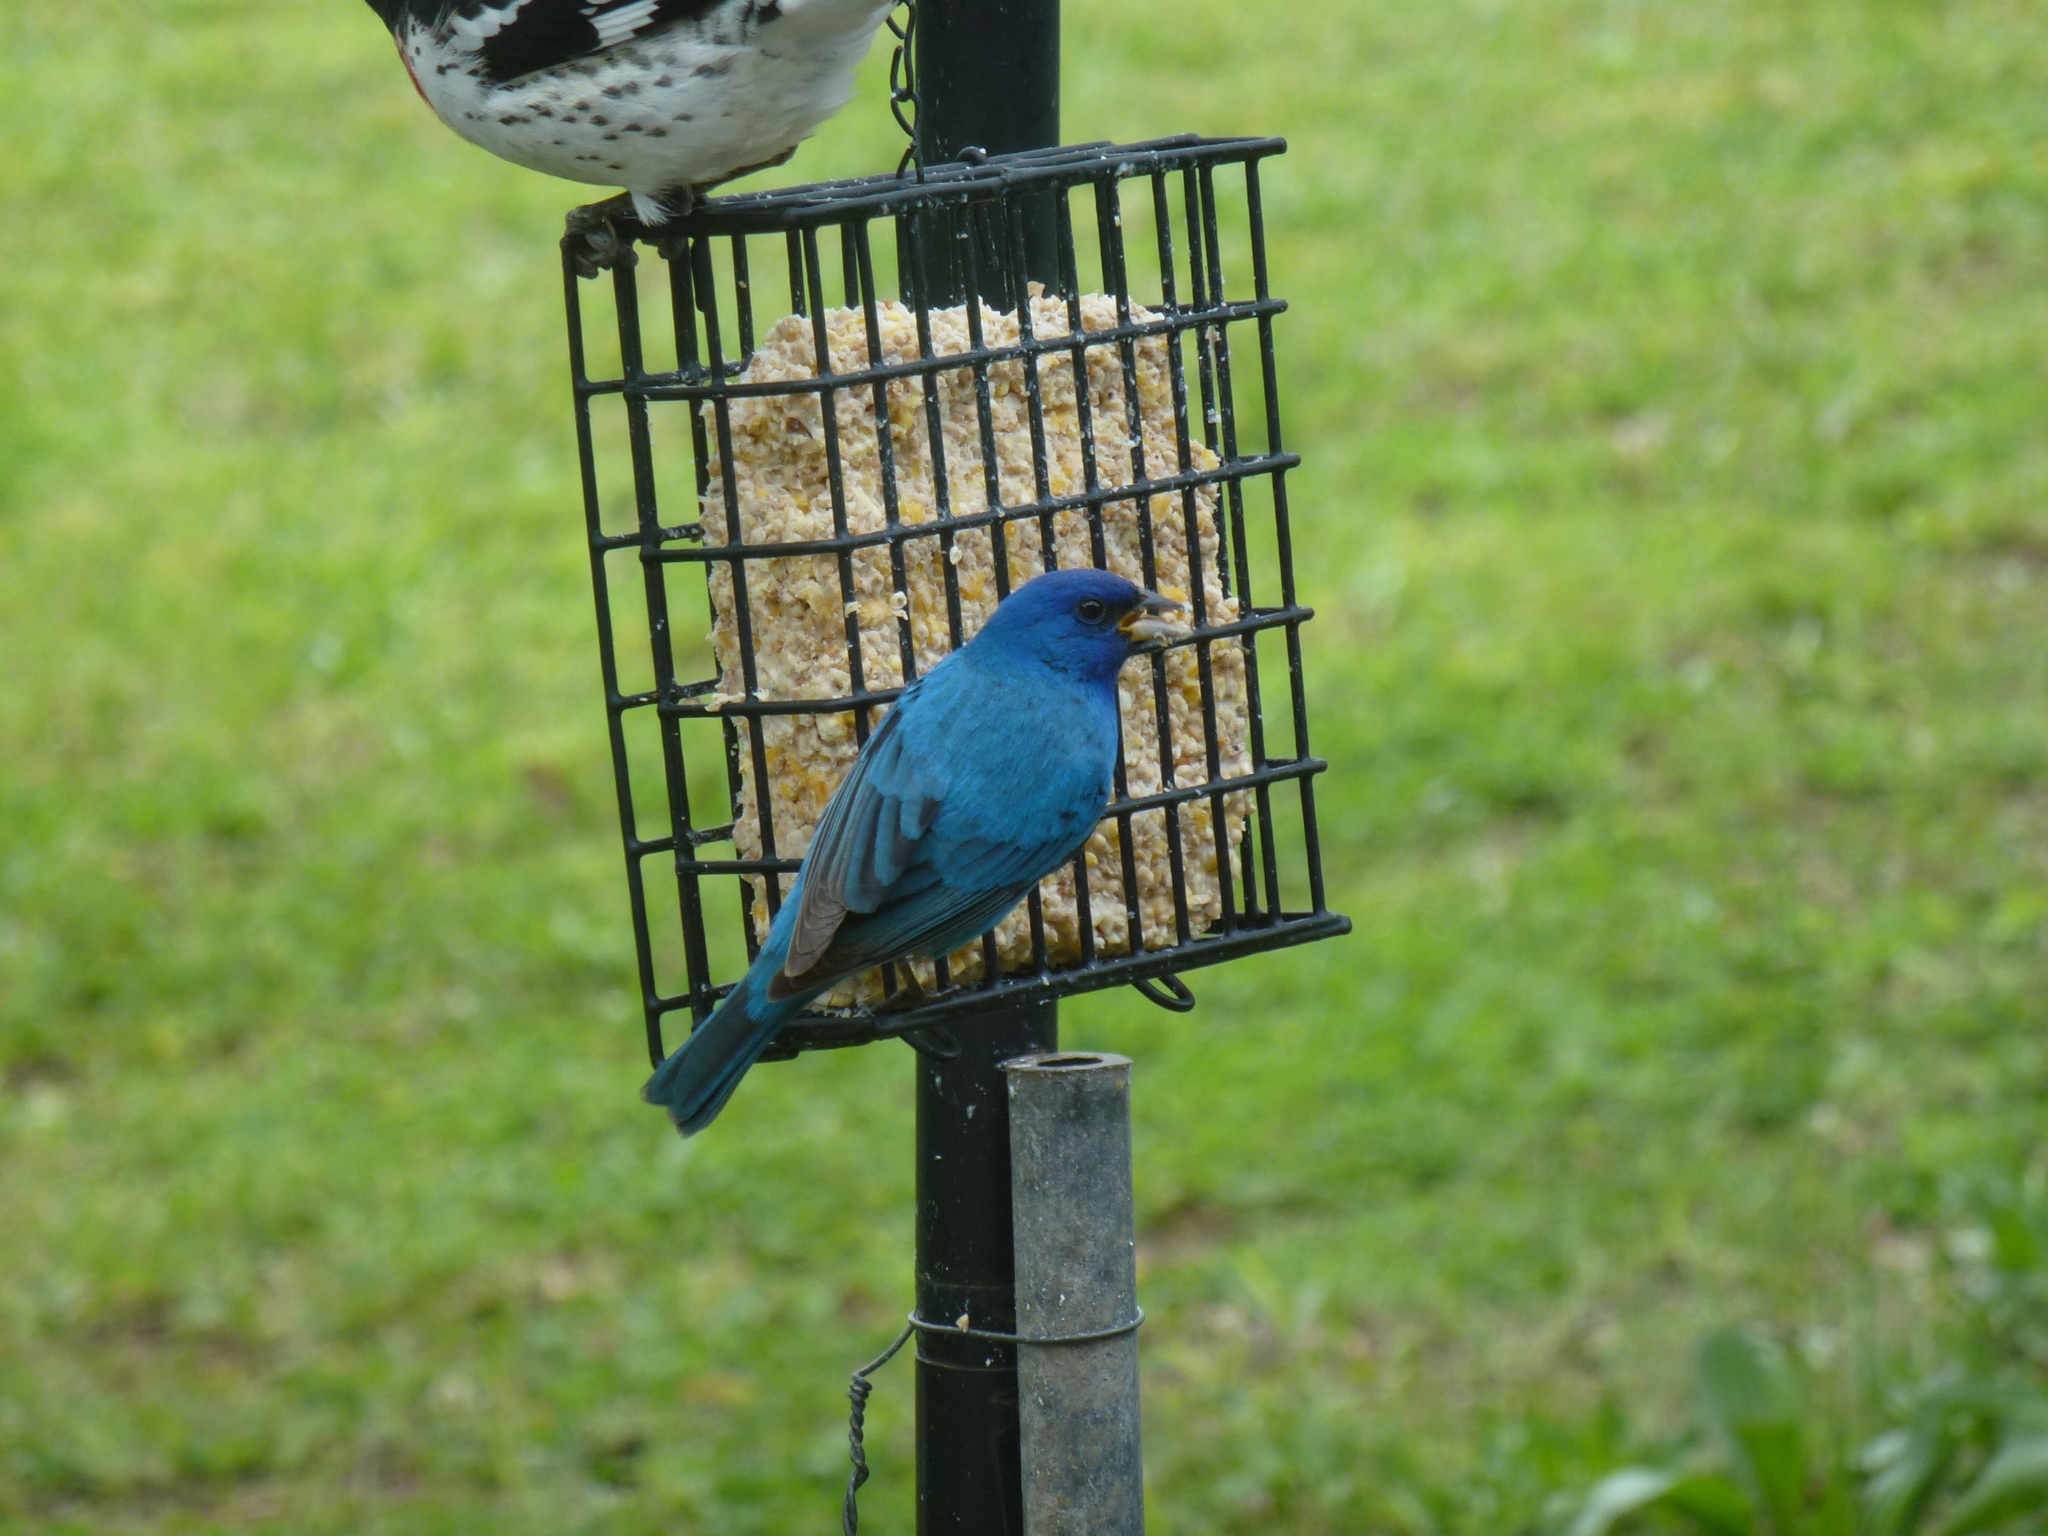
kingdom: Animalia
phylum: Chordata
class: Aves
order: Passeriformes
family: Cardinalidae
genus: Passerina
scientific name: Passerina cyanea
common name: Indigo bunting
